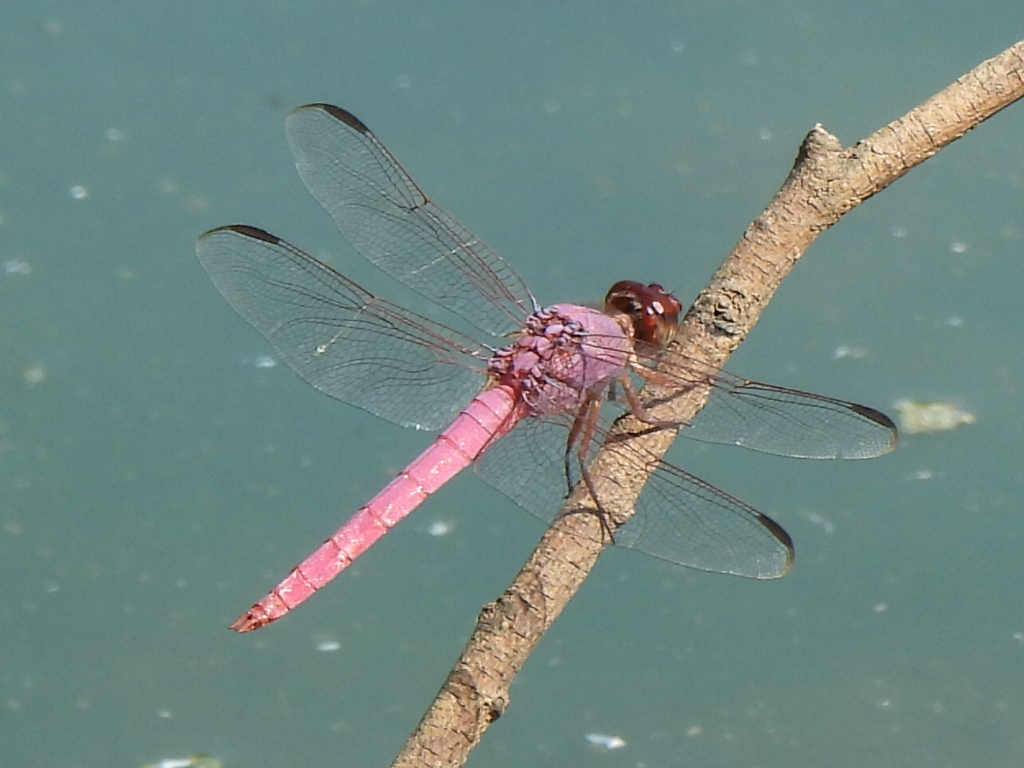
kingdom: Animalia
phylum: Arthropoda
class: Insecta
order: Odonata
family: Libellulidae
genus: Orthemis
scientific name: Orthemis ferruginea
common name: Roseate skimmer
